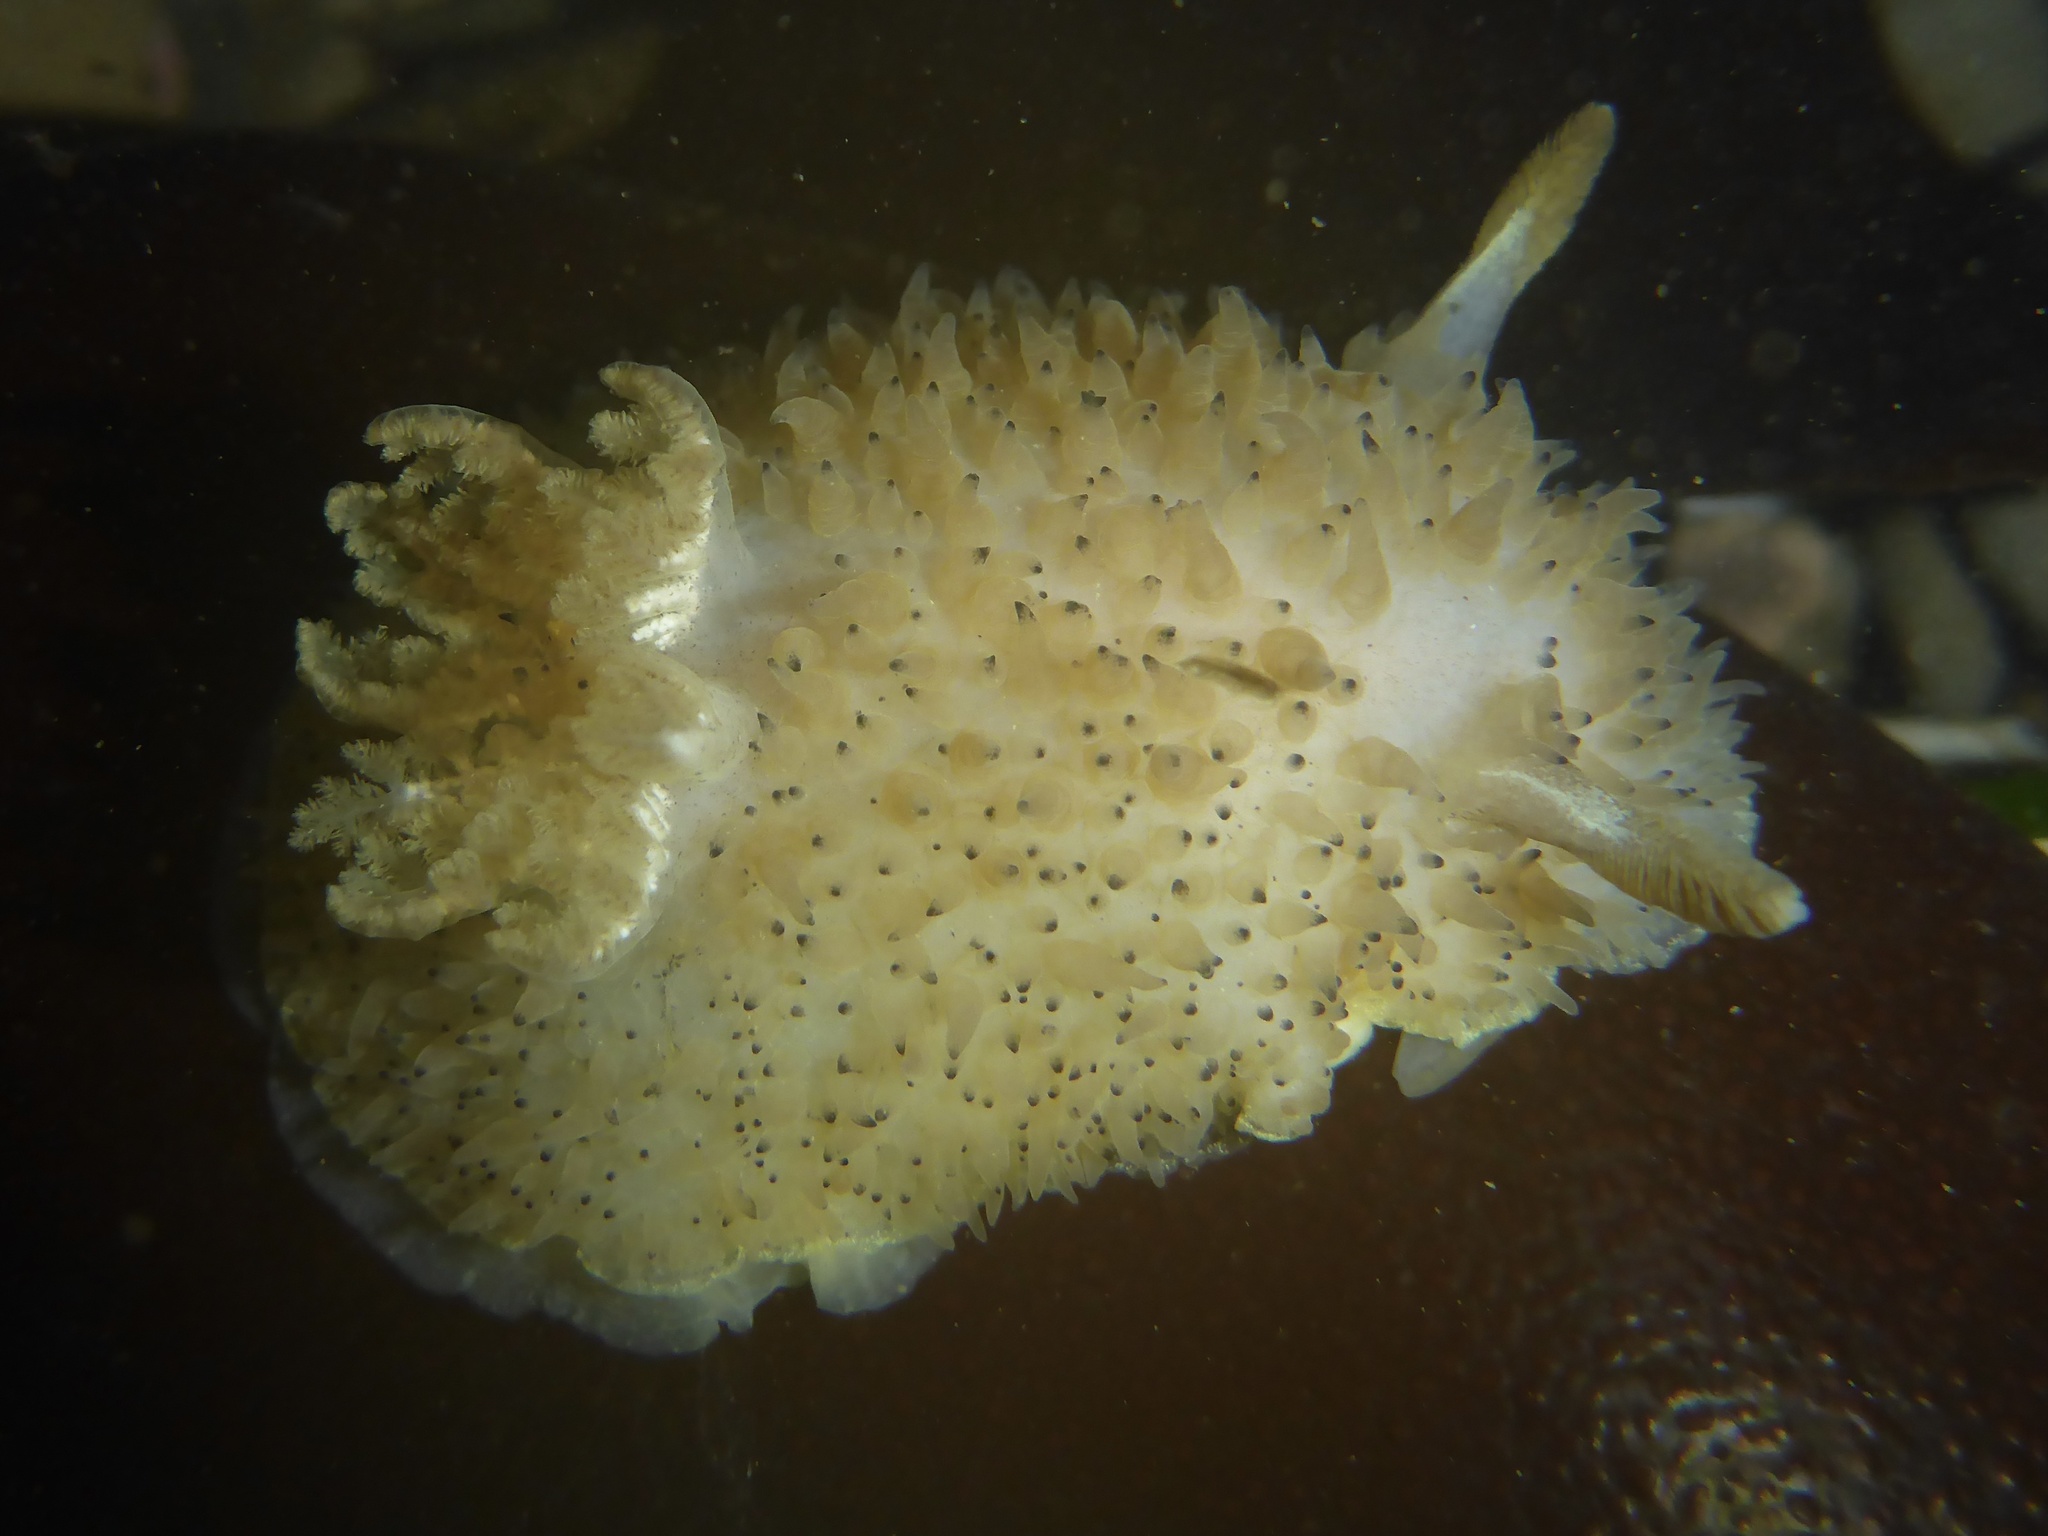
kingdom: Animalia
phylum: Mollusca
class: Gastropoda
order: Nudibranchia
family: Onchidorididae
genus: Acanthodoris
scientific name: Acanthodoris rhodoceras
